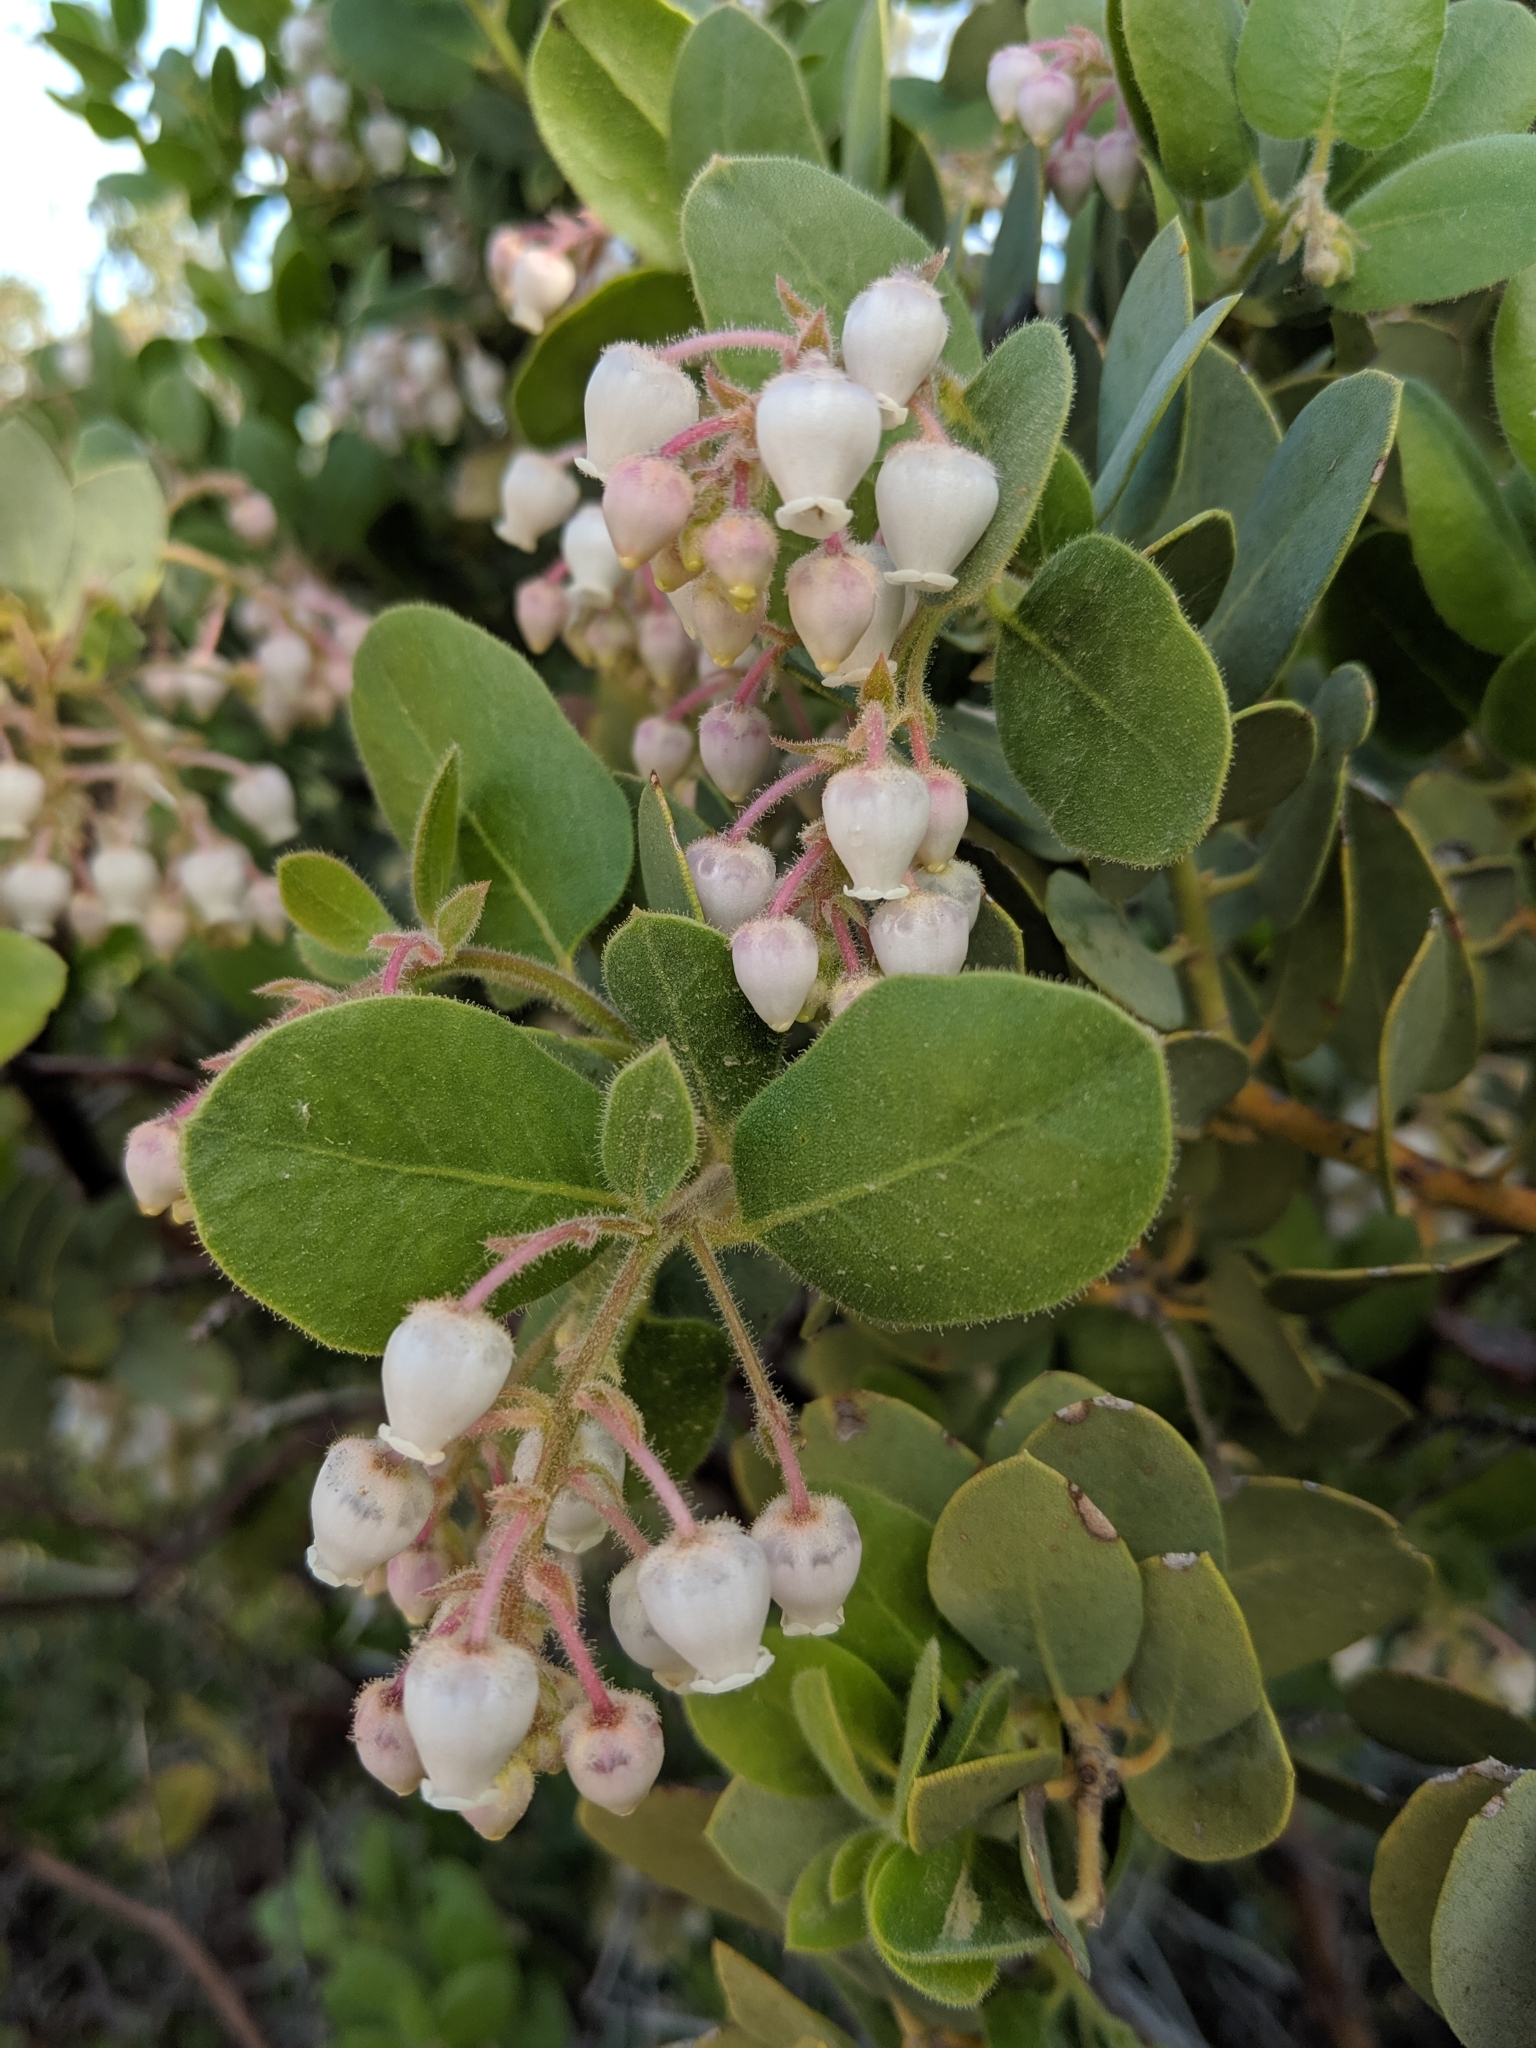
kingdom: Plantae
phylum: Tracheophyta
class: Magnoliopsida
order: Ericales
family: Ericaceae
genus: Arctostaphylos
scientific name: Arctostaphylos pringlei
